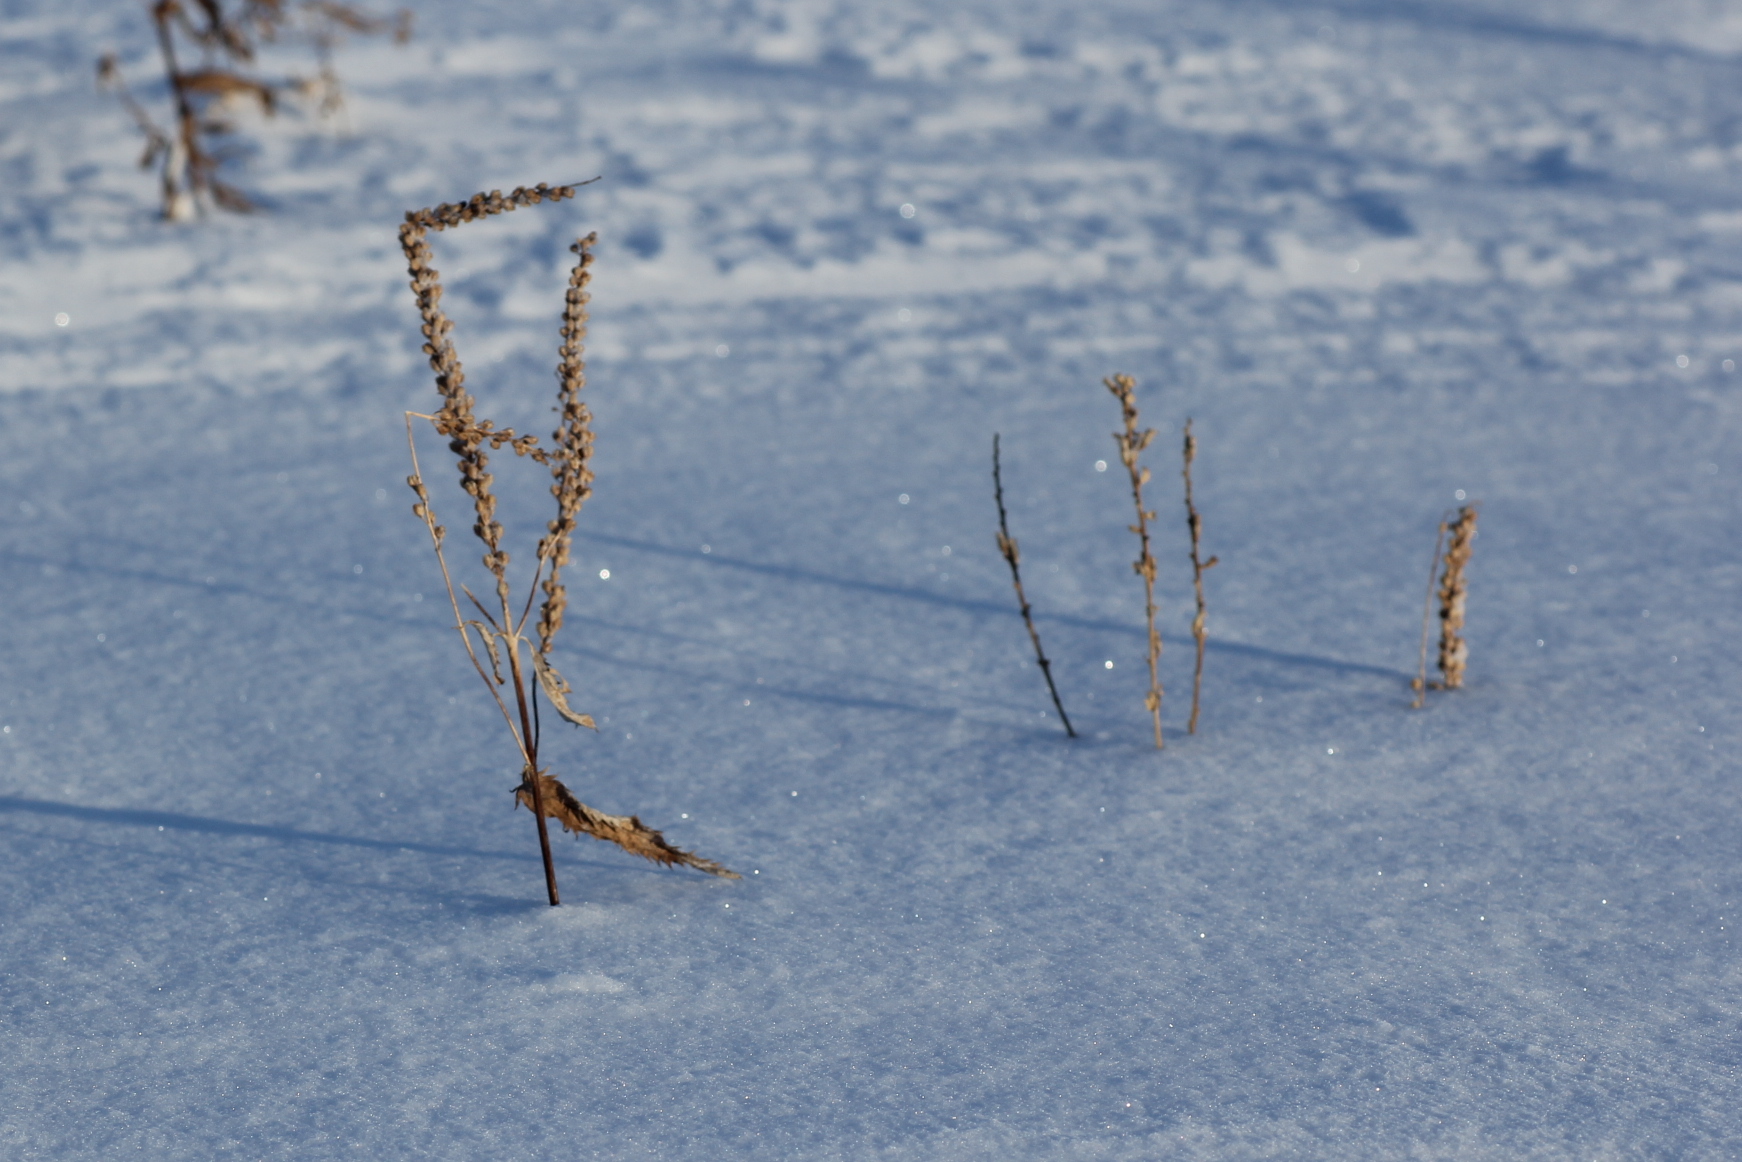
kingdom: Plantae
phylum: Tracheophyta
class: Magnoliopsida
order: Lamiales
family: Plantaginaceae
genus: Veronica
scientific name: Veronica longifolia
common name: Garden speedwell
